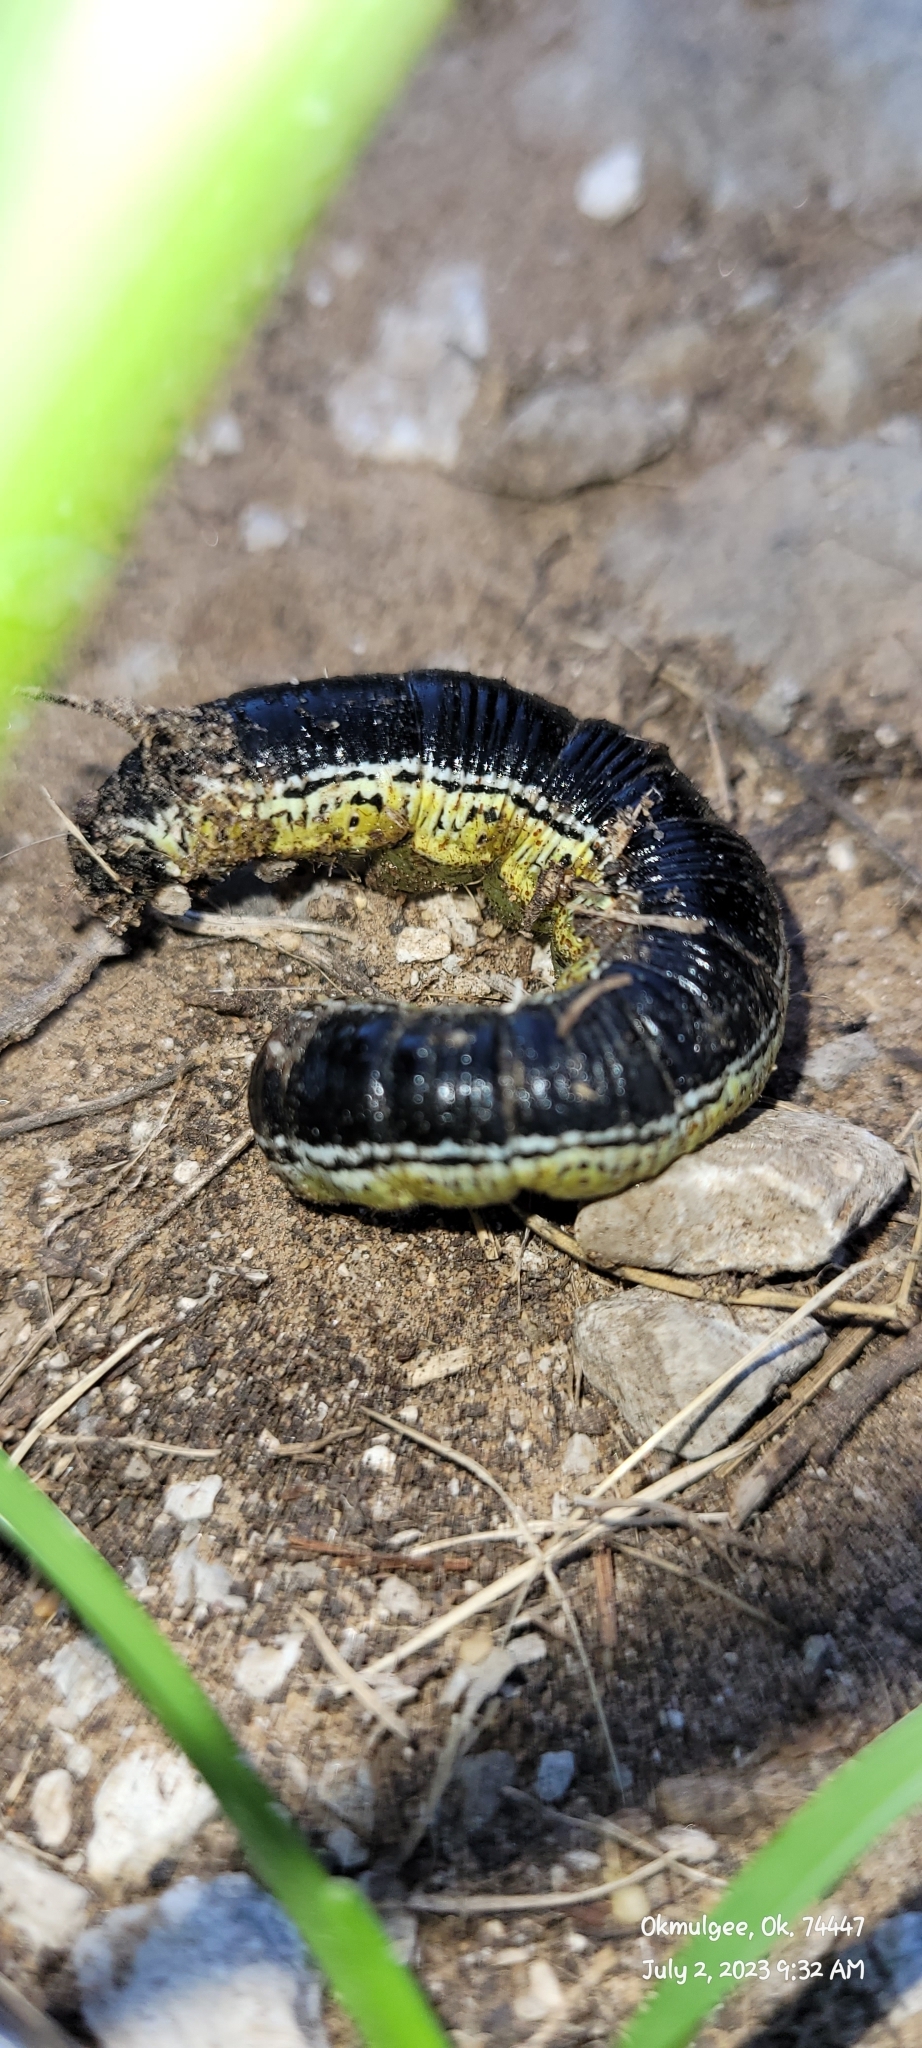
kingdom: Animalia
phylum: Arthropoda
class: Insecta
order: Lepidoptera
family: Sphingidae
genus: Ceratomia
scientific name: Ceratomia catalpae
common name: Catalpa hornworm
